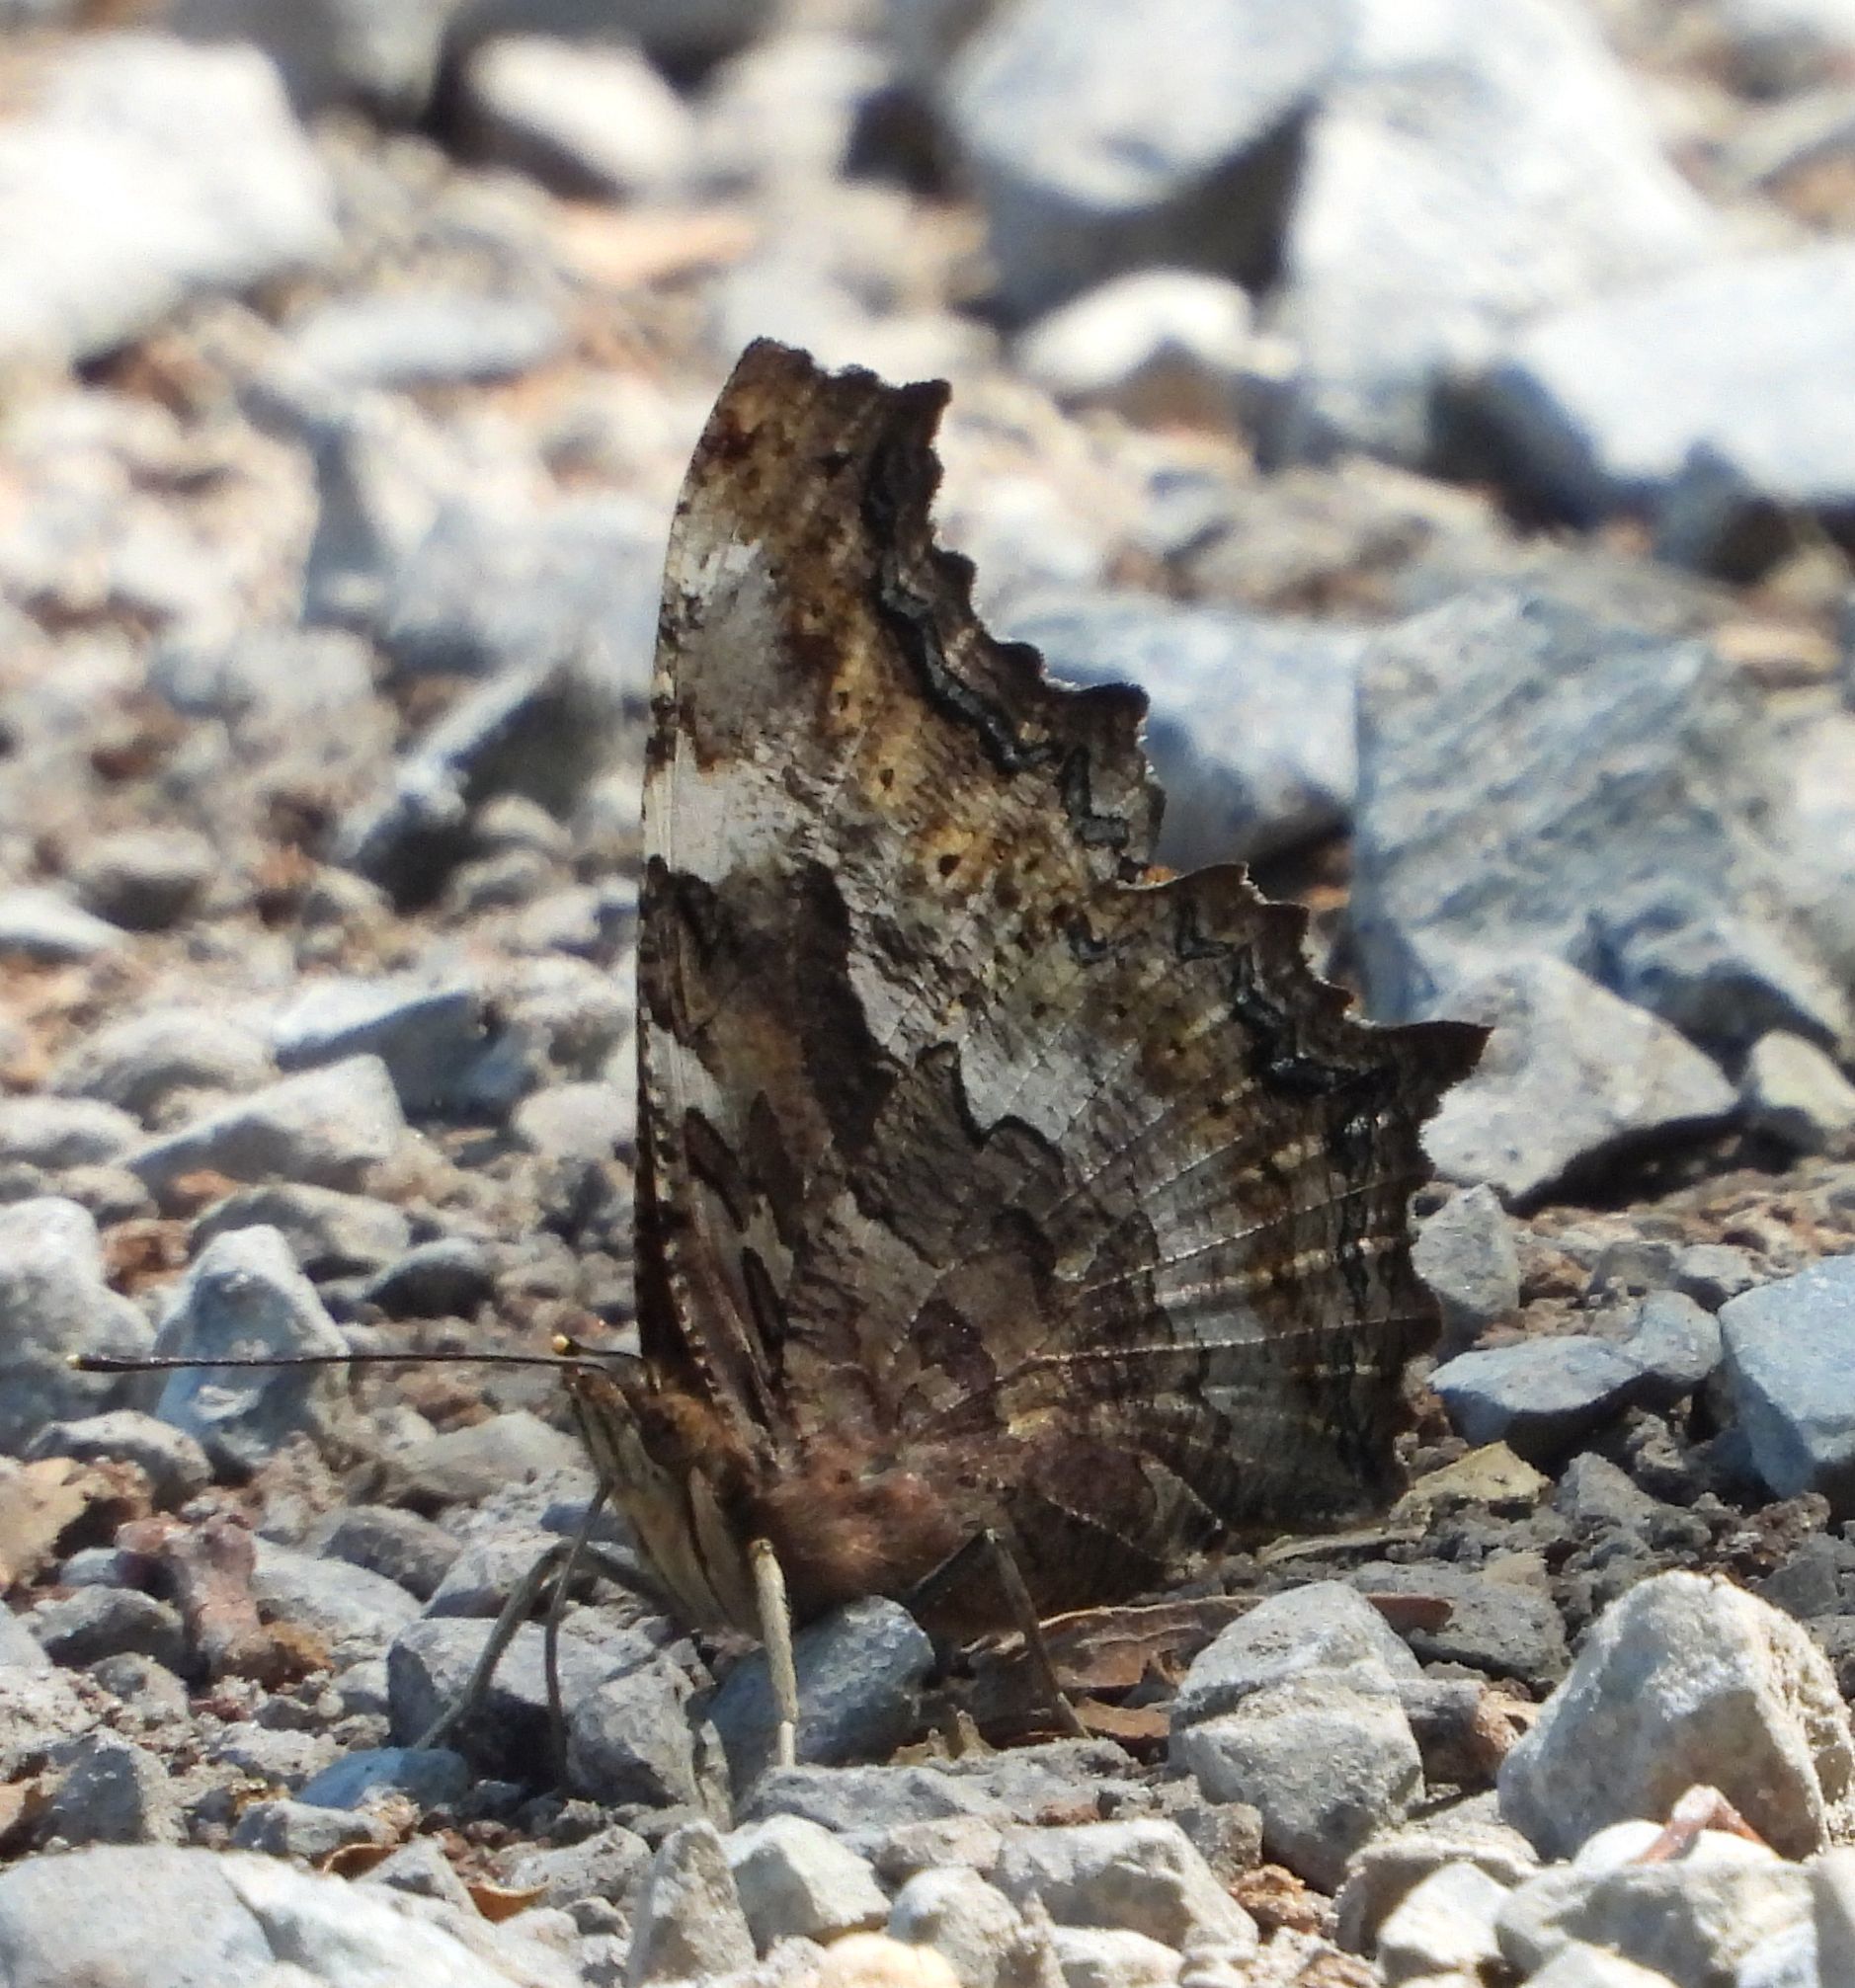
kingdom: Animalia
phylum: Arthropoda
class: Insecta
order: Lepidoptera
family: Nymphalidae
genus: Polygonia
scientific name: Polygonia vaualbum
